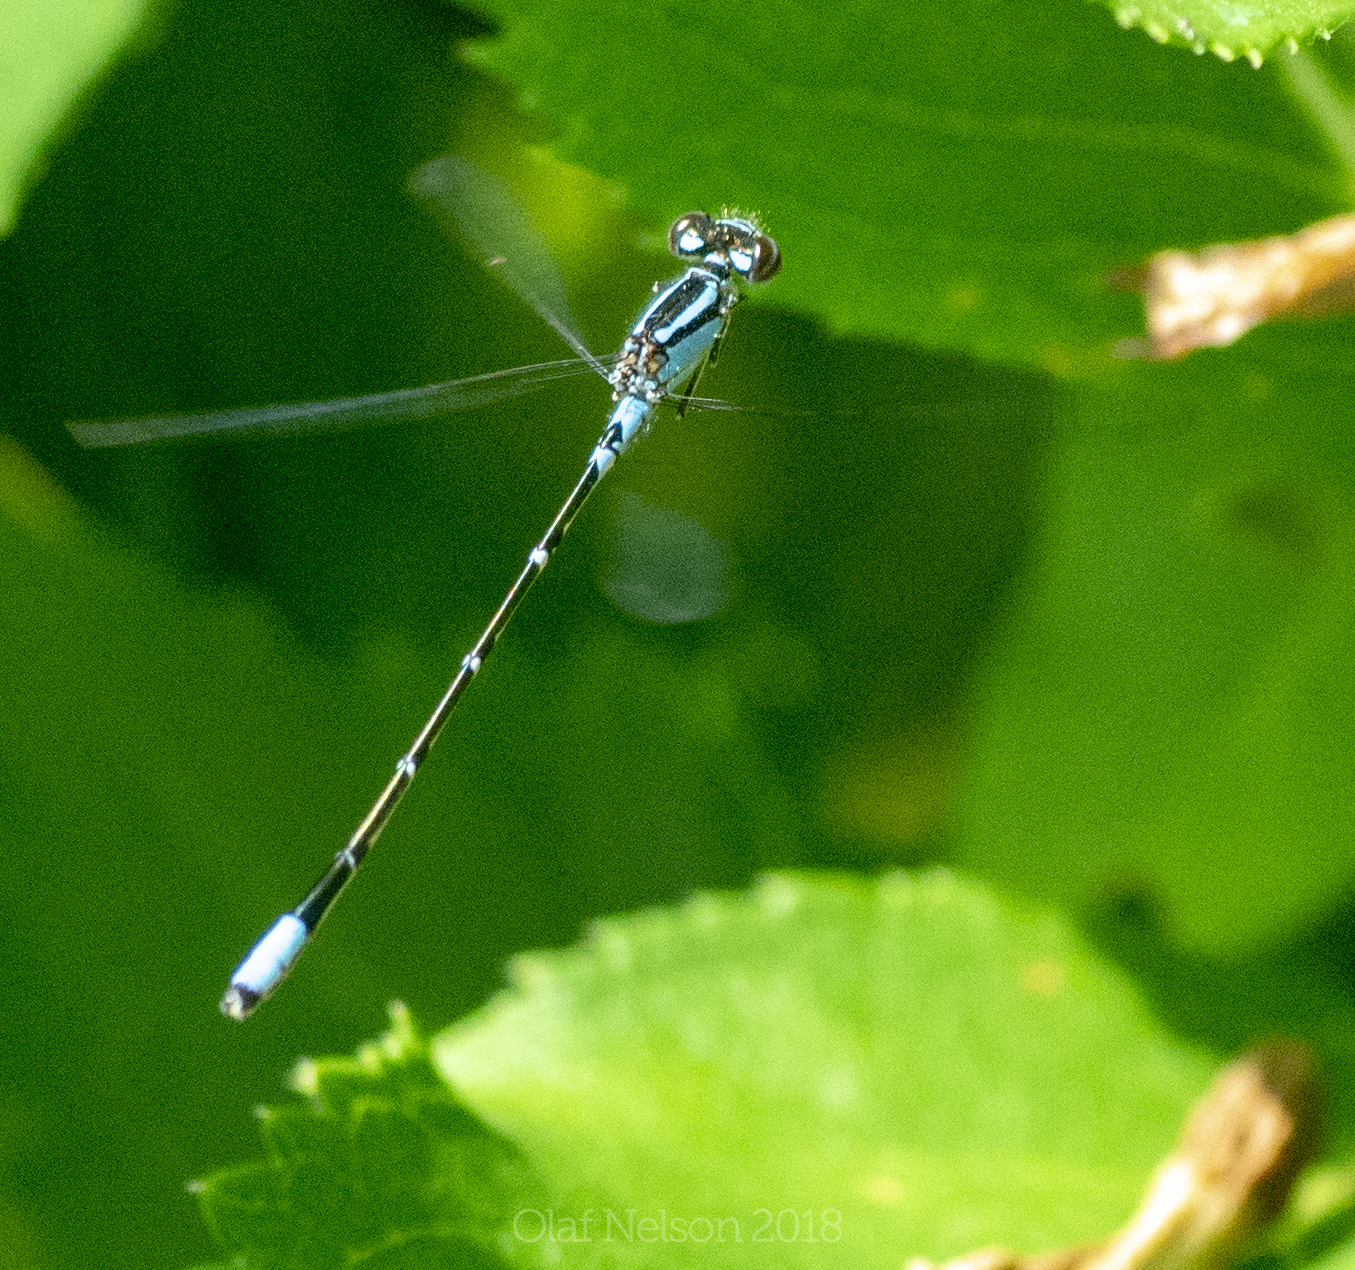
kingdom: Animalia
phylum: Arthropoda
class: Insecta
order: Odonata
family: Coenagrionidae
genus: Enallagma
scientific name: Enallagma geminatum
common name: Skimming bluet
